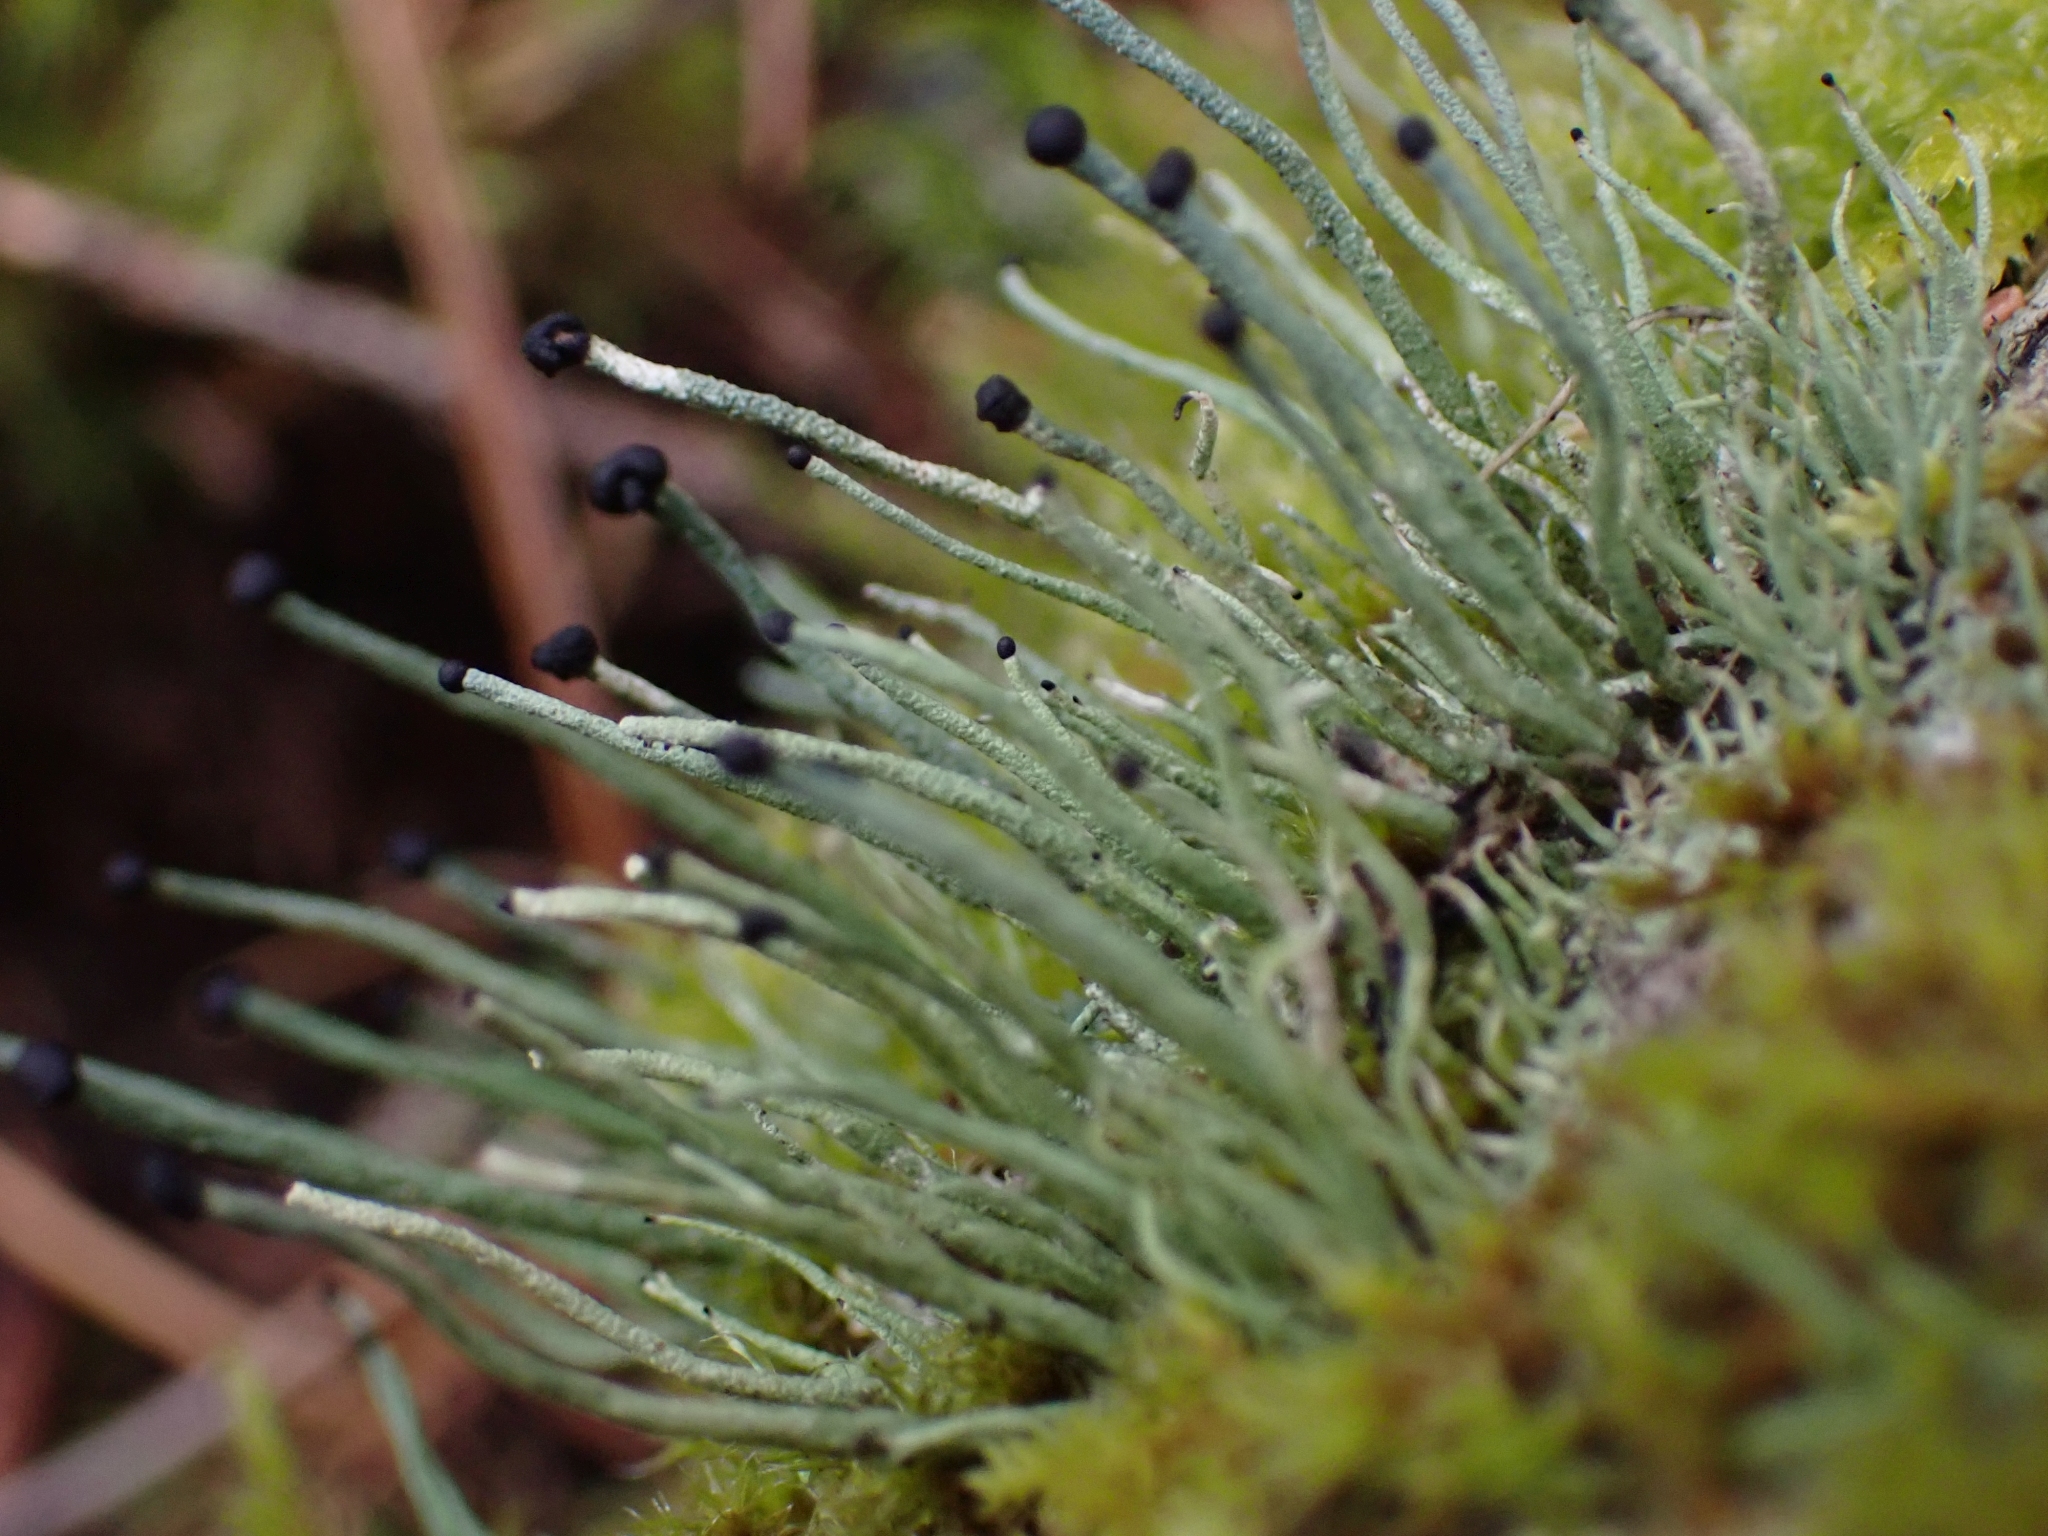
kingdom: Fungi
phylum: Ascomycota
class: Lecanoromycetes
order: Lecanorales
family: Cladoniaceae
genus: Pilophorus
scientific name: Pilophorus acicularis
